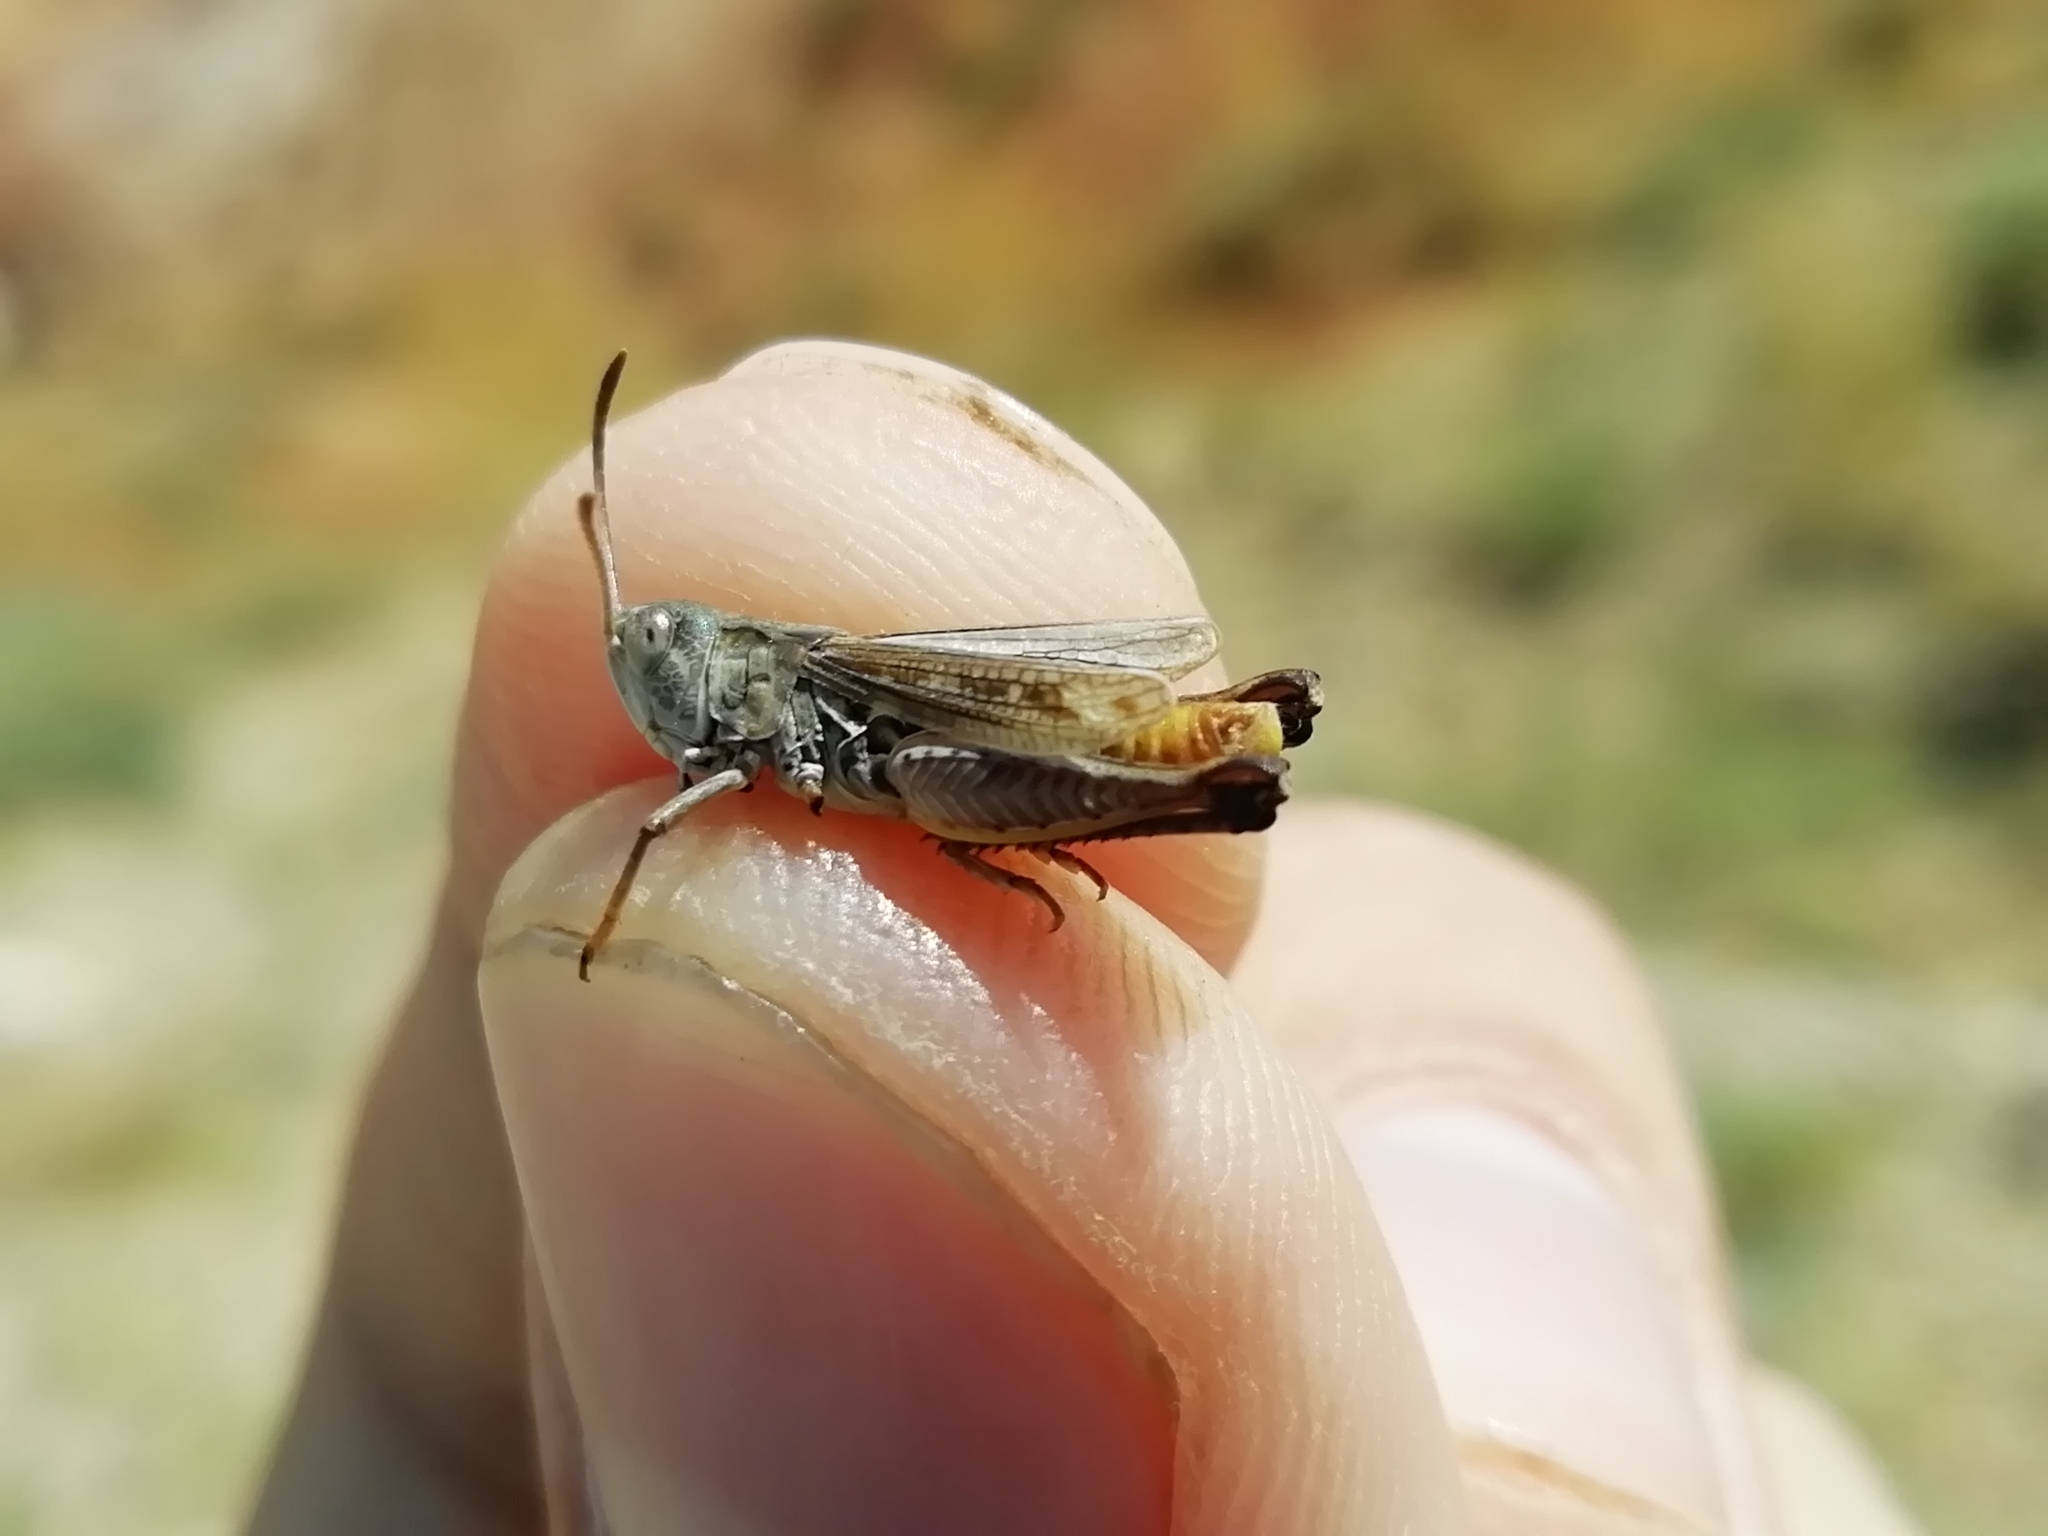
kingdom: Animalia
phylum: Arthropoda
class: Insecta
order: Orthoptera
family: Acrididae
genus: Myrmeleotettix
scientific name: Myrmeleotettix palpalis
